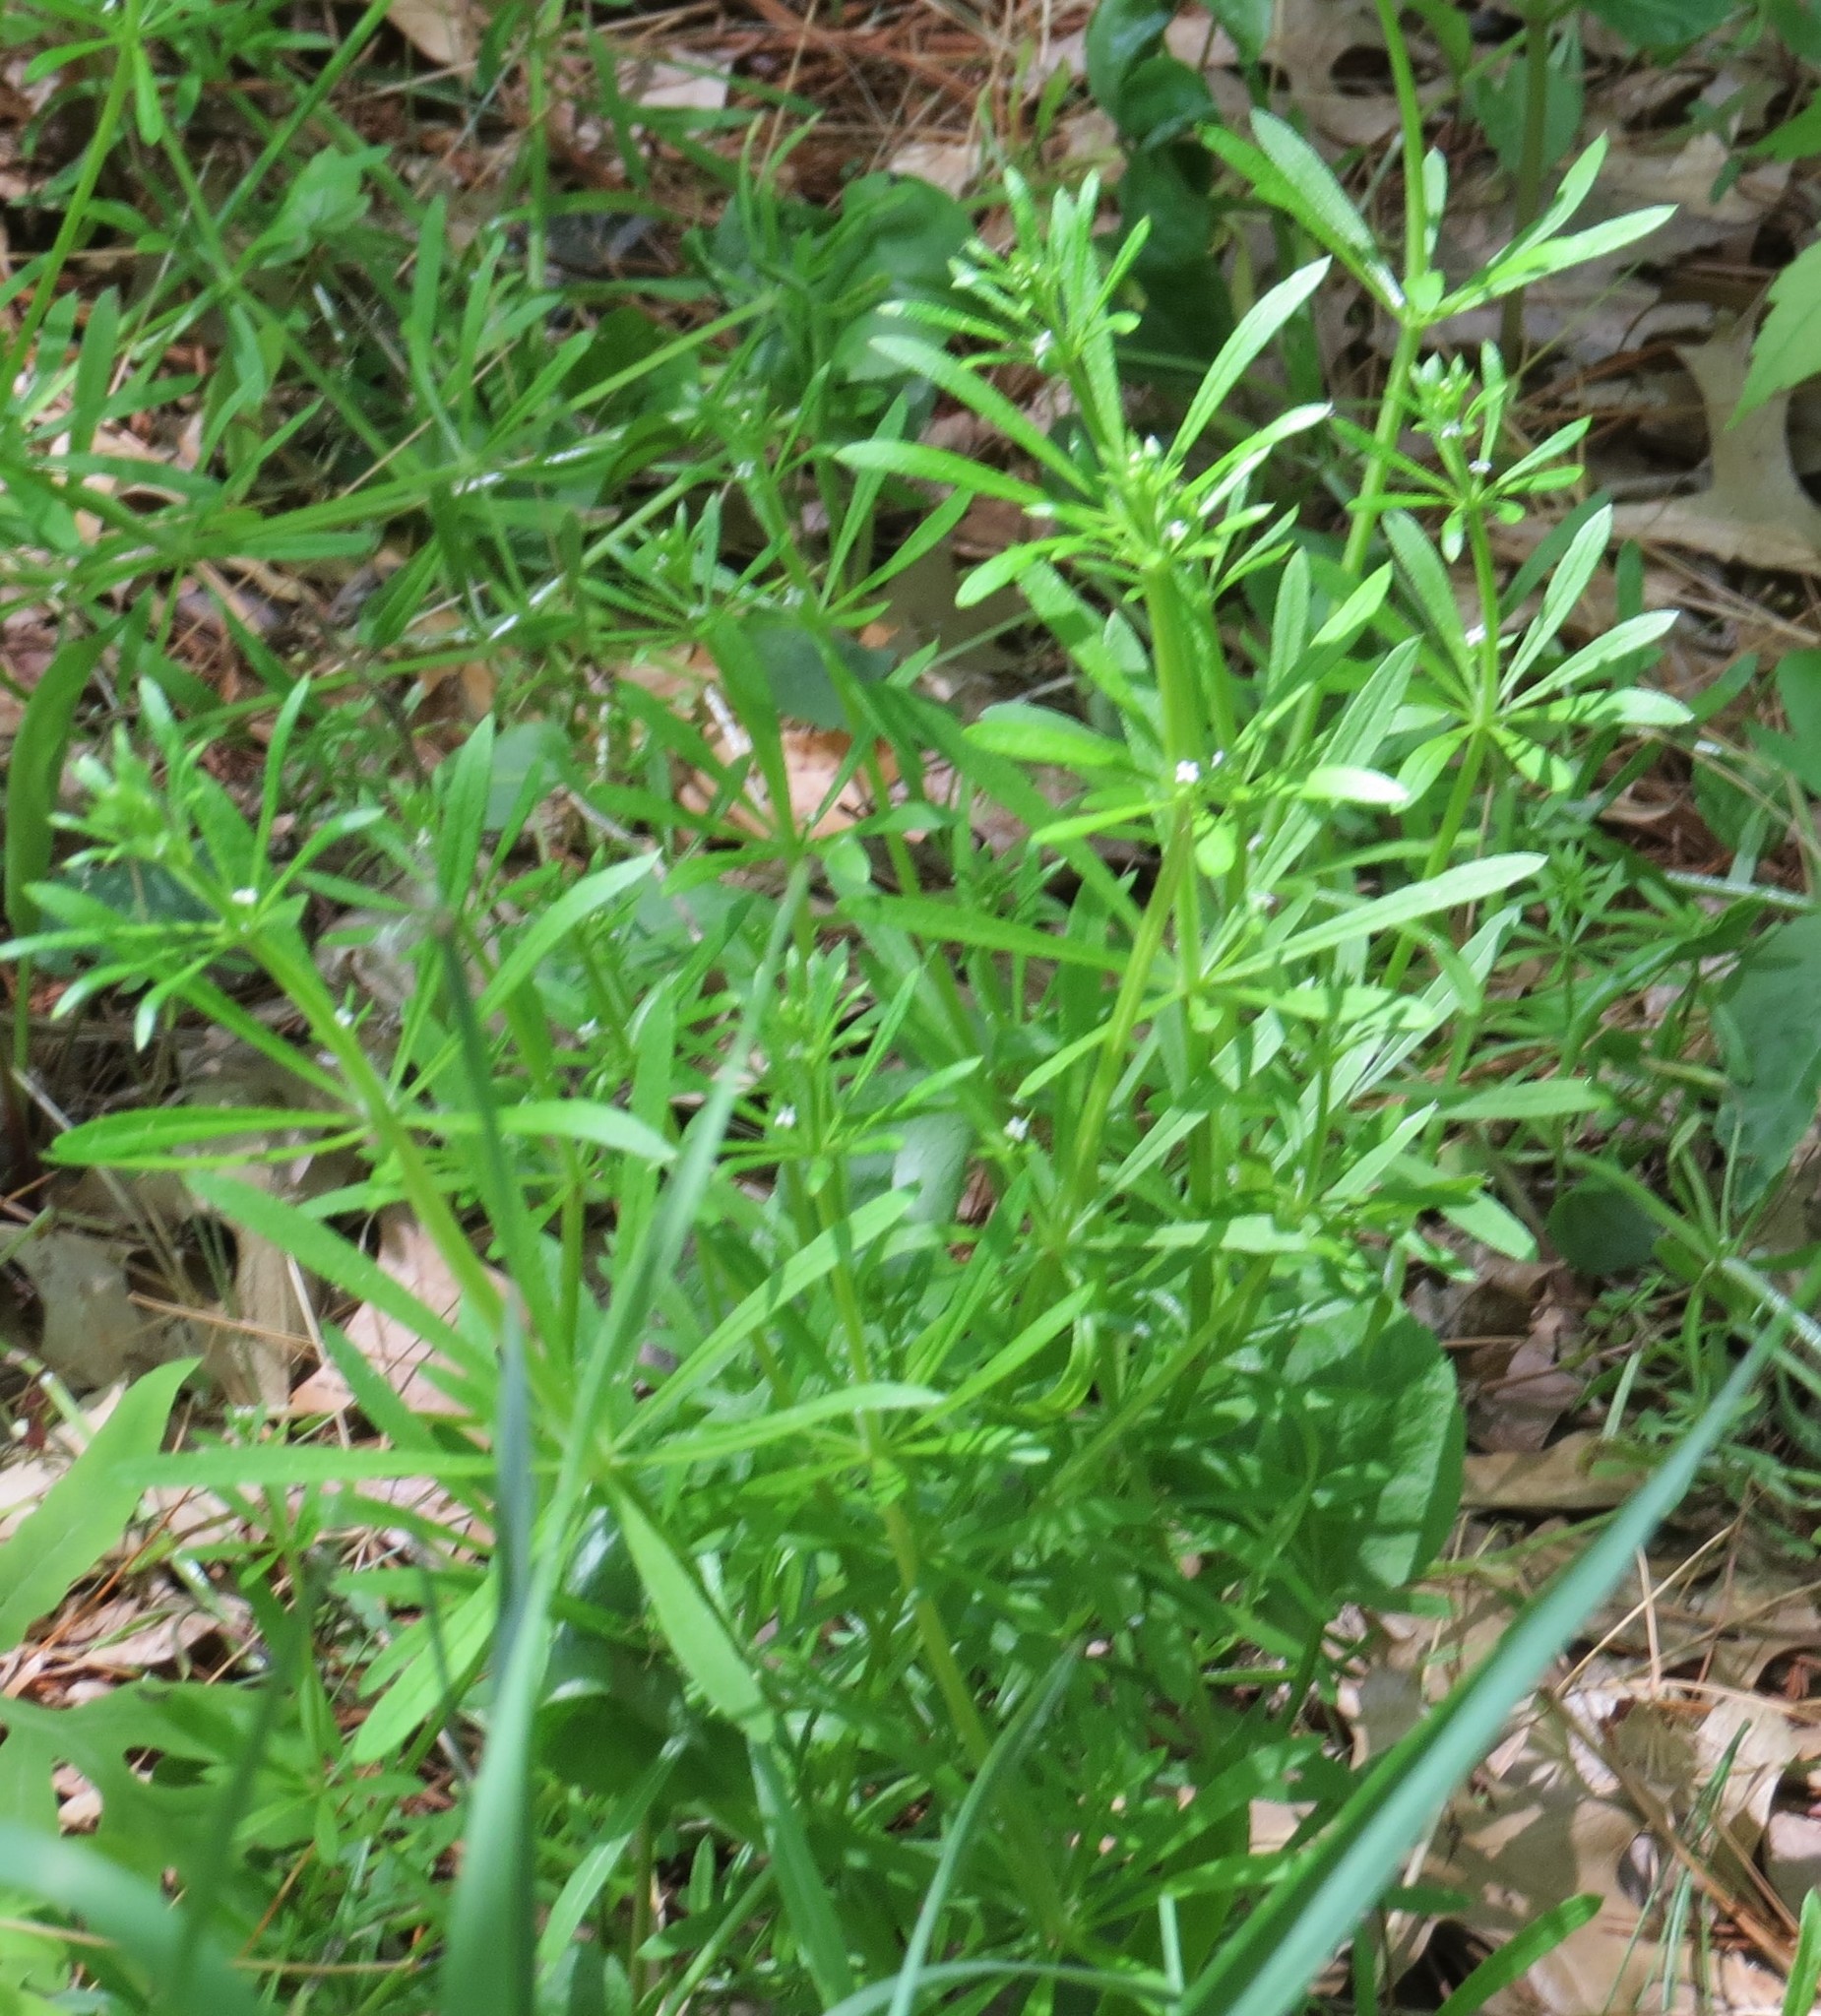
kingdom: Plantae
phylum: Tracheophyta
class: Magnoliopsida
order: Gentianales
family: Rubiaceae
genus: Galium
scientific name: Galium aparine
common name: Cleavers
